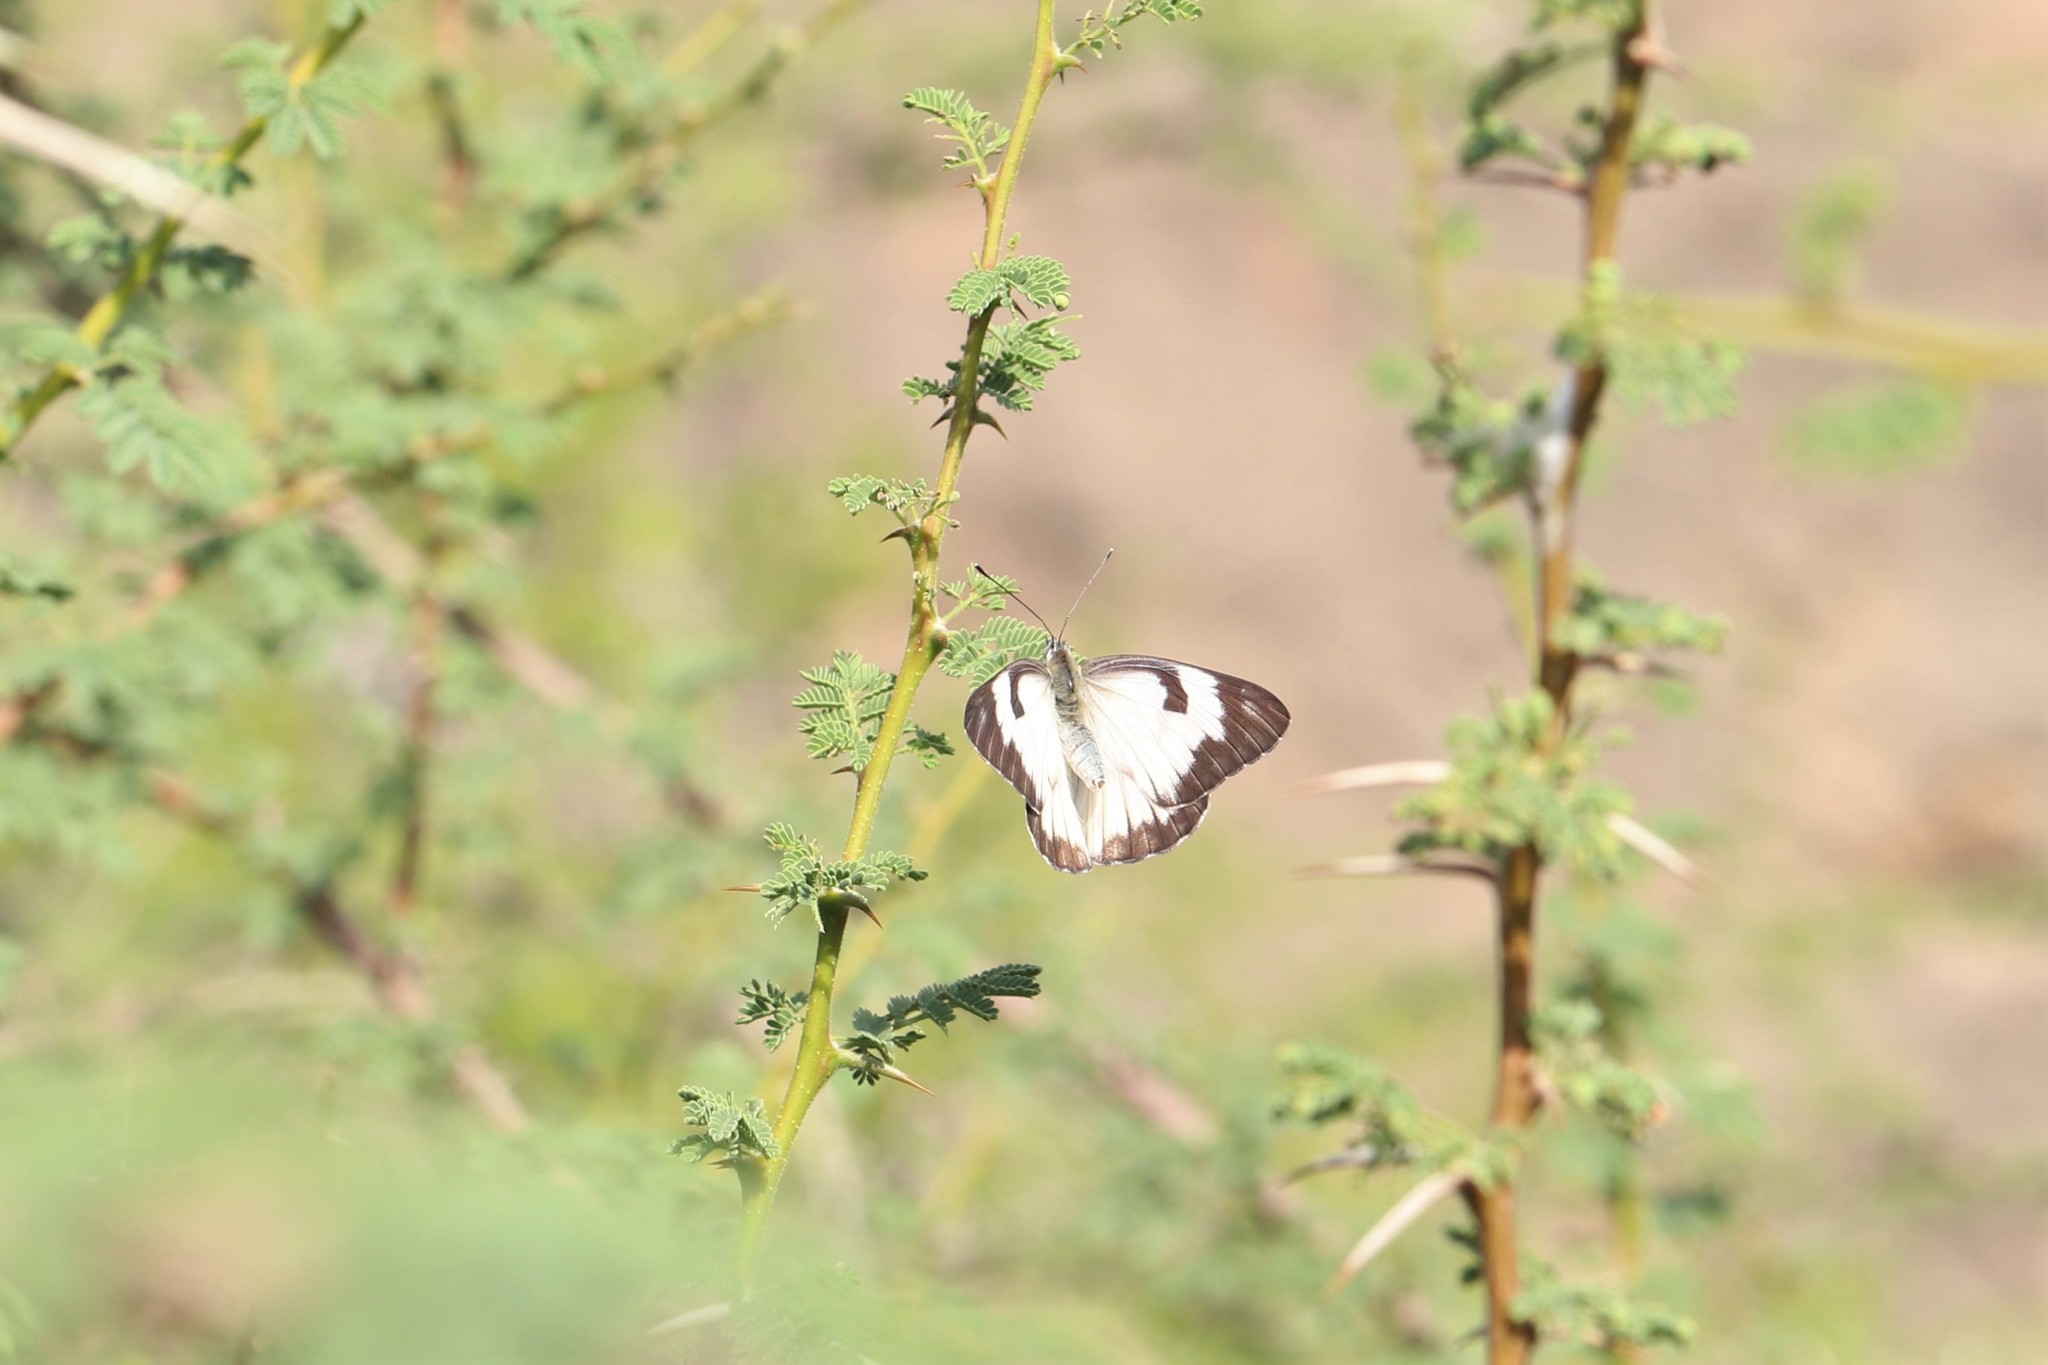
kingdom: Animalia
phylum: Arthropoda
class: Insecta
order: Lepidoptera
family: Pieridae
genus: Belenois
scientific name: Belenois aurota
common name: Brown-veined white
